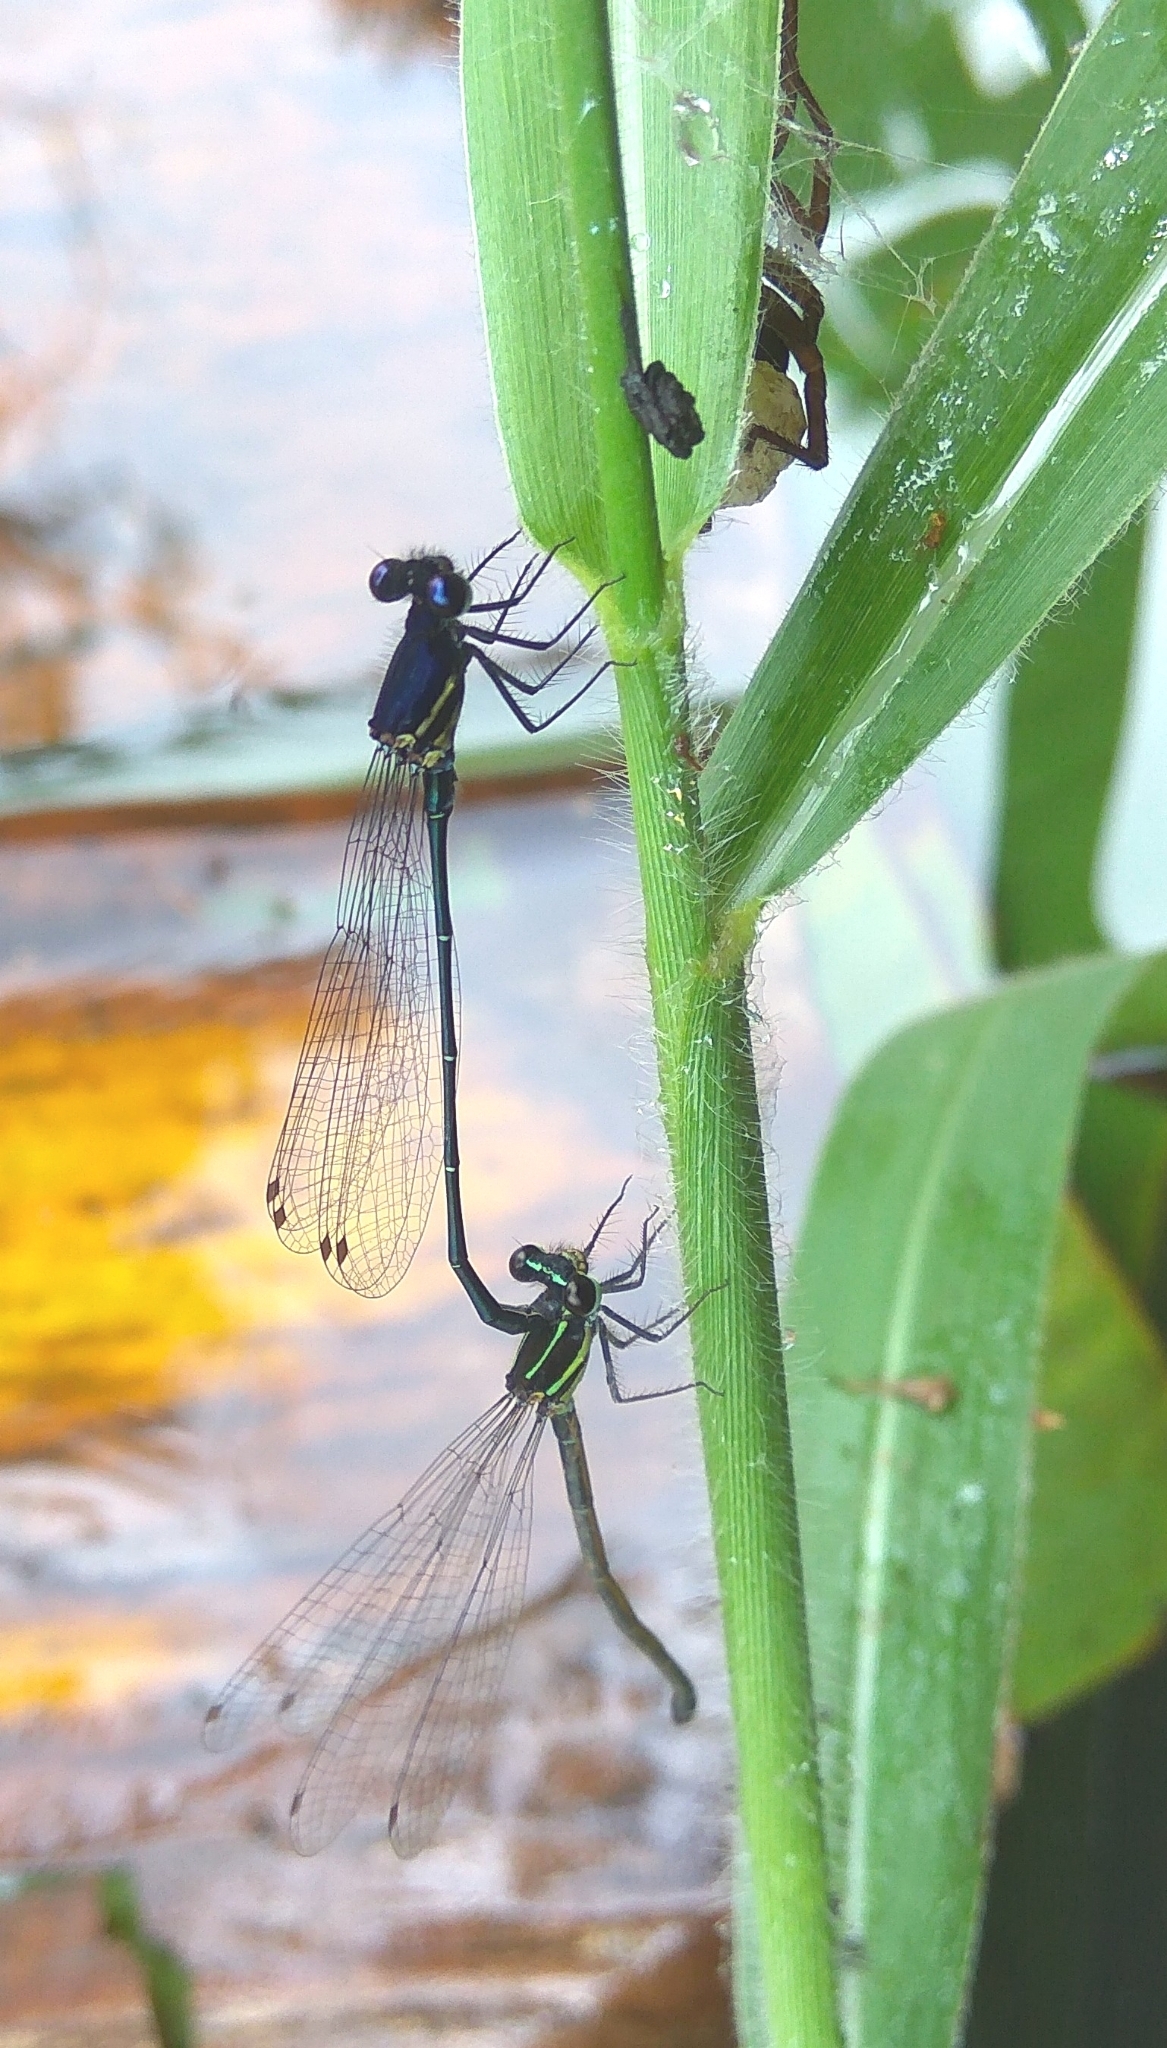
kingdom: Animalia
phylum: Arthropoda
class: Insecta
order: Odonata
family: Platycnemididae
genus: Onychargia
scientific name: Onychargia atrocyana
